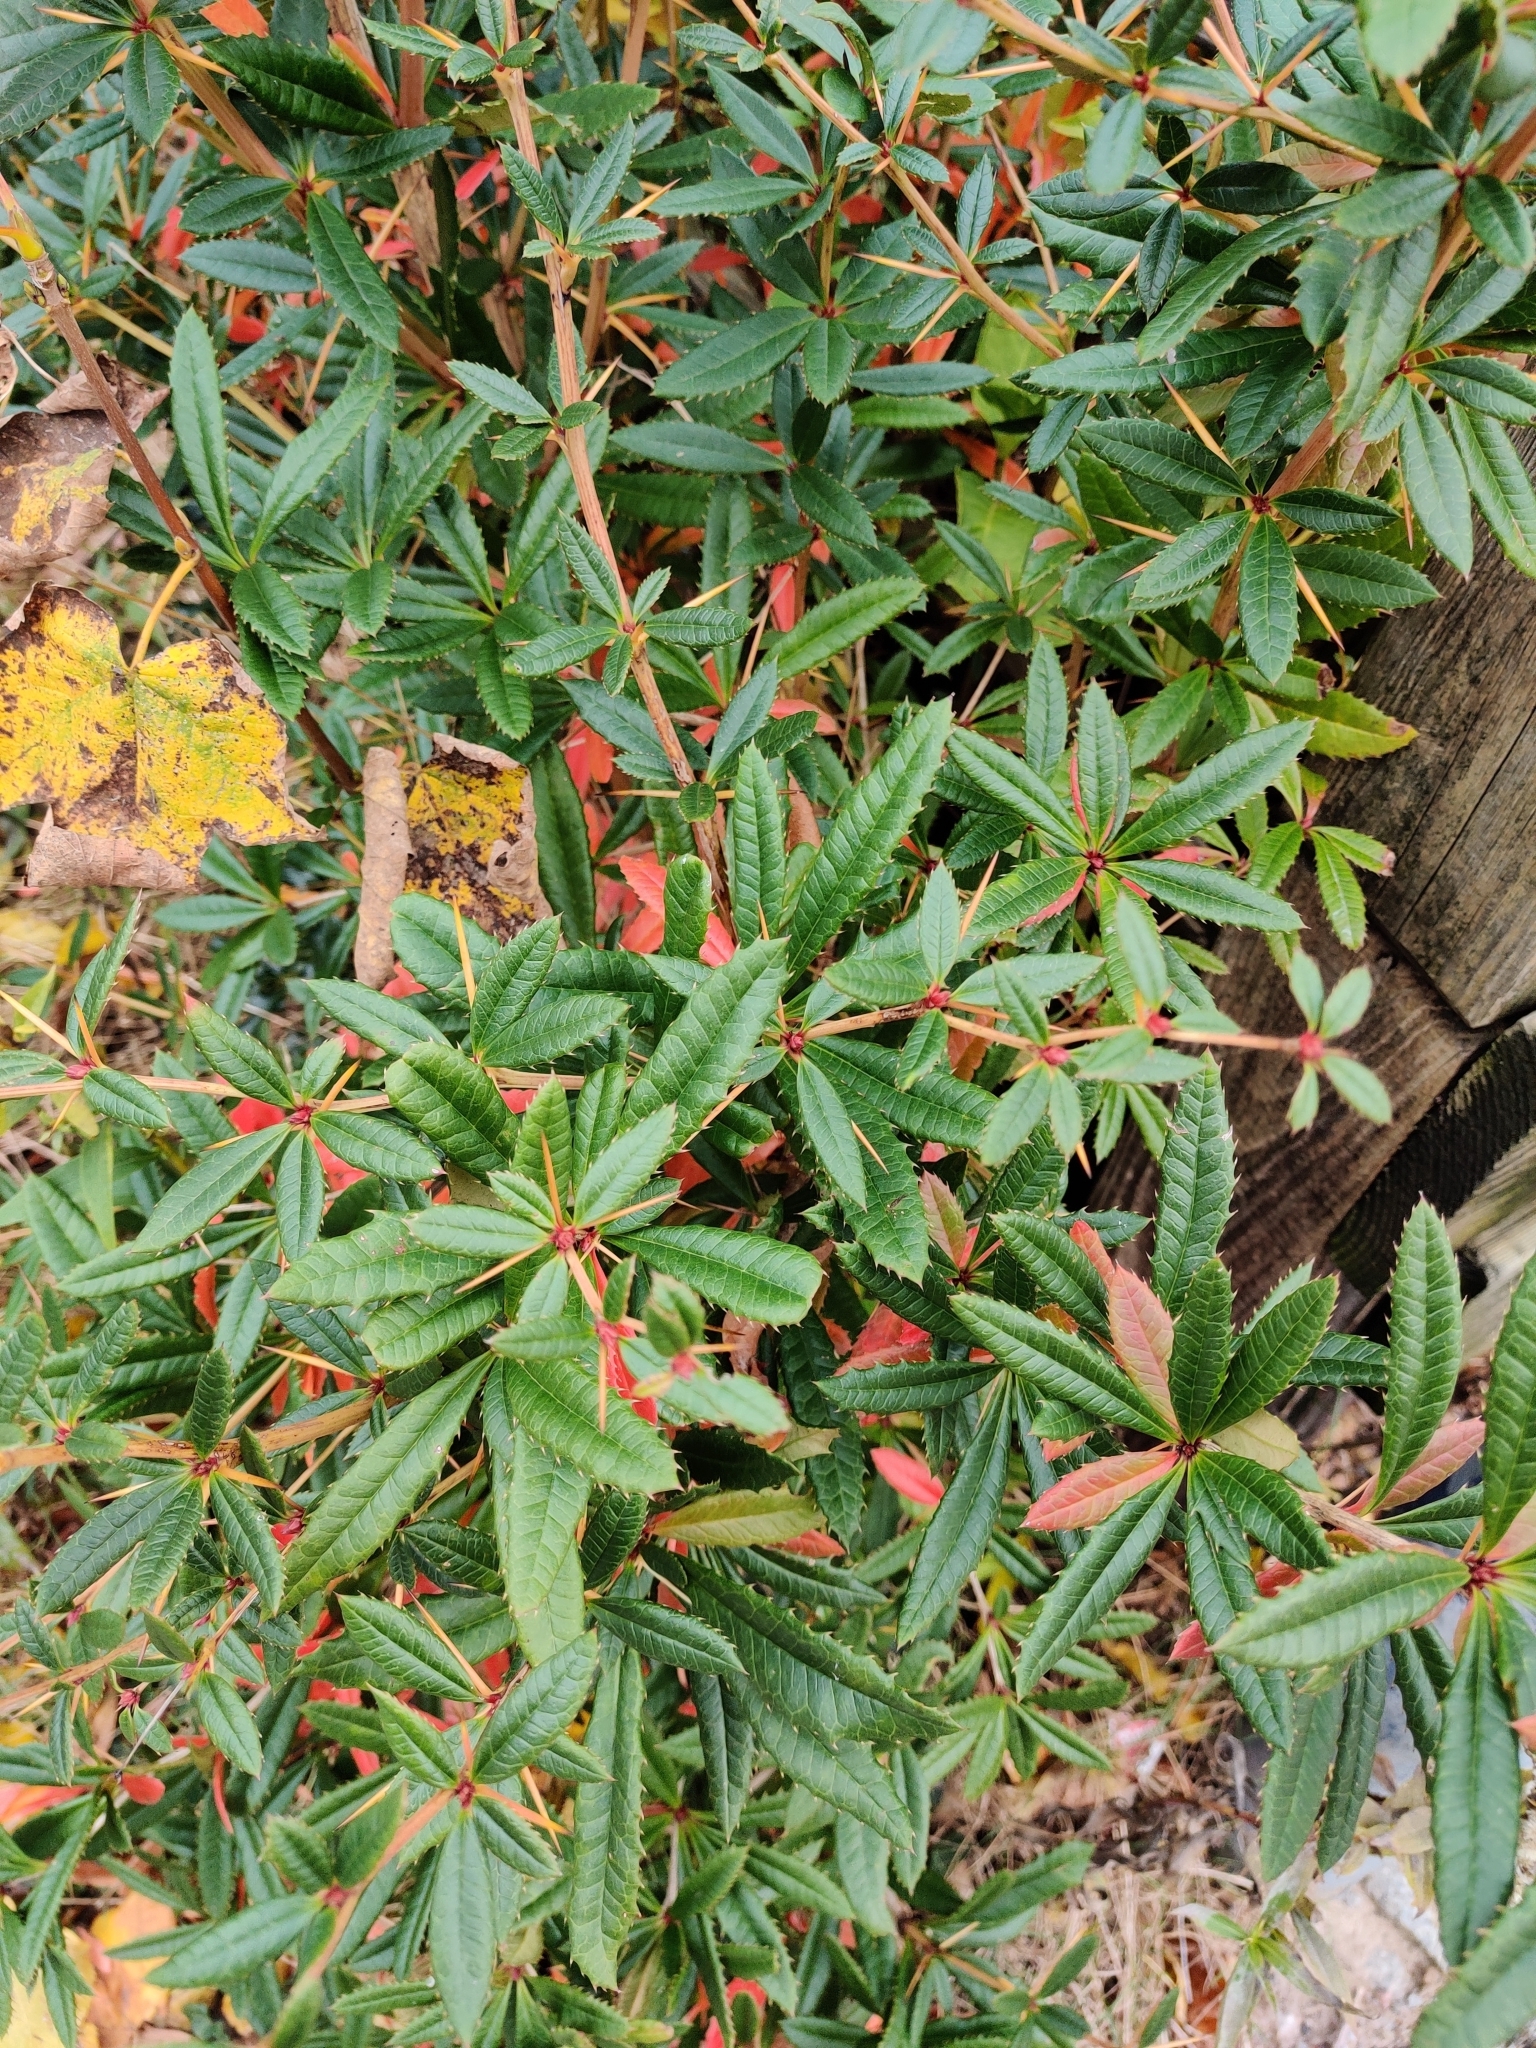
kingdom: Plantae
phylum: Tracheophyta
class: Magnoliopsida
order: Ranunculales
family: Berberidaceae
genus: Berberis
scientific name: Berberis julianae
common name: Wintergreen barberry
